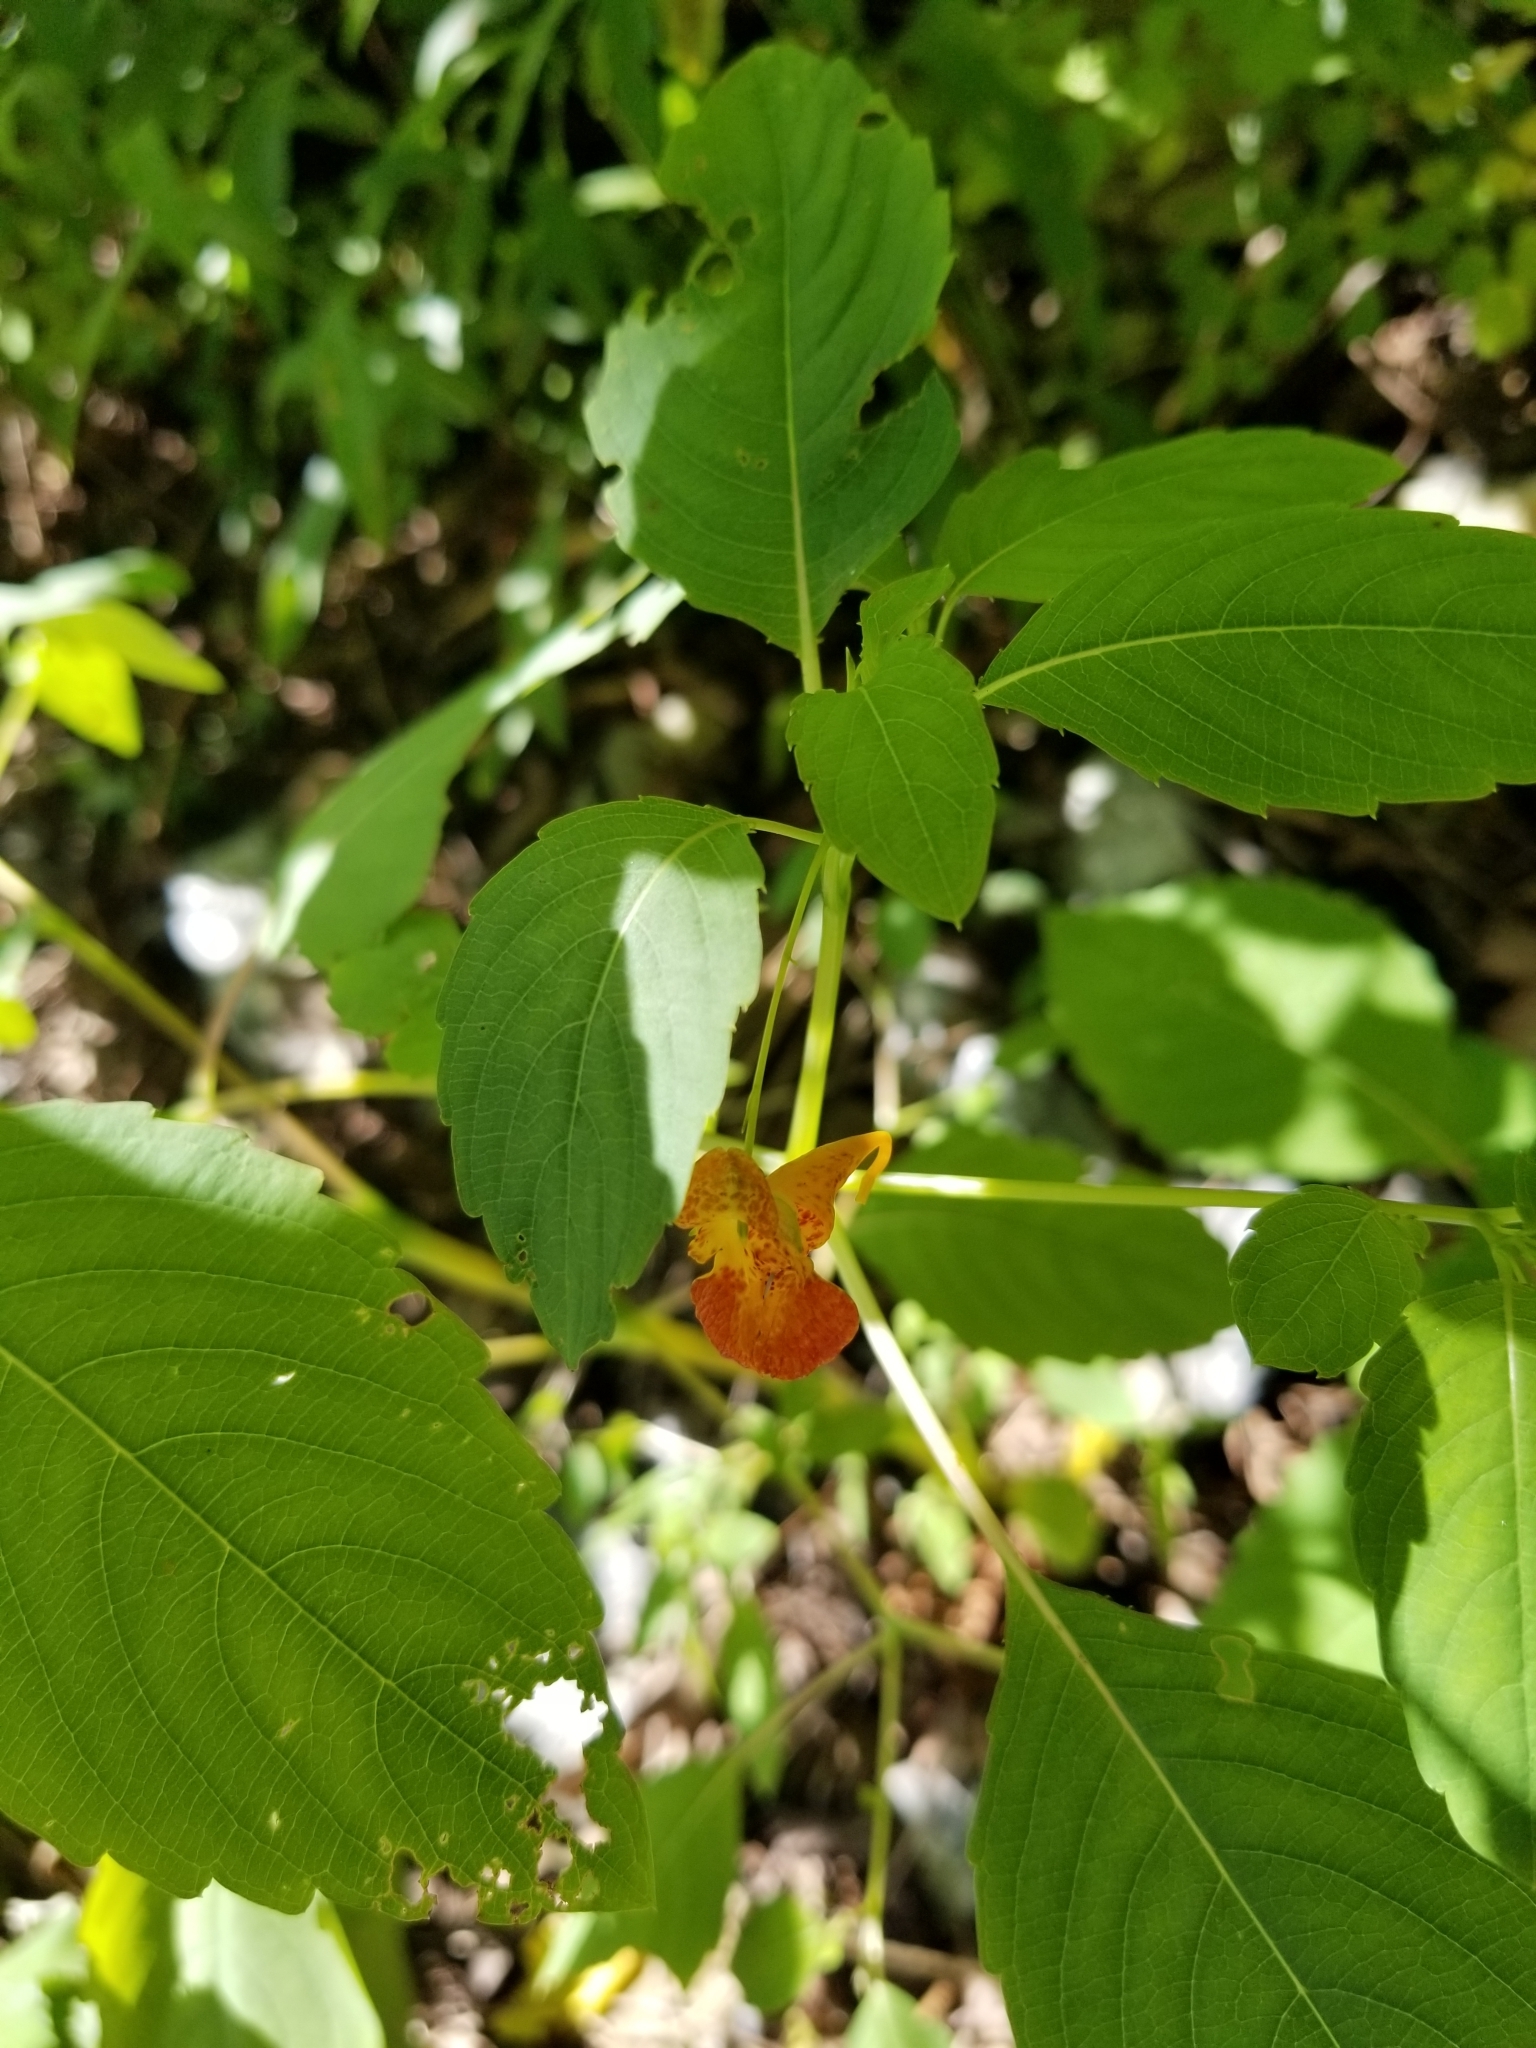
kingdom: Plantae
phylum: Tracheophyta
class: Magnoliopsida
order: Ericales
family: Balsaminaceae
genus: Impatiens
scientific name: Impatiens capensis
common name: Orange balsam
